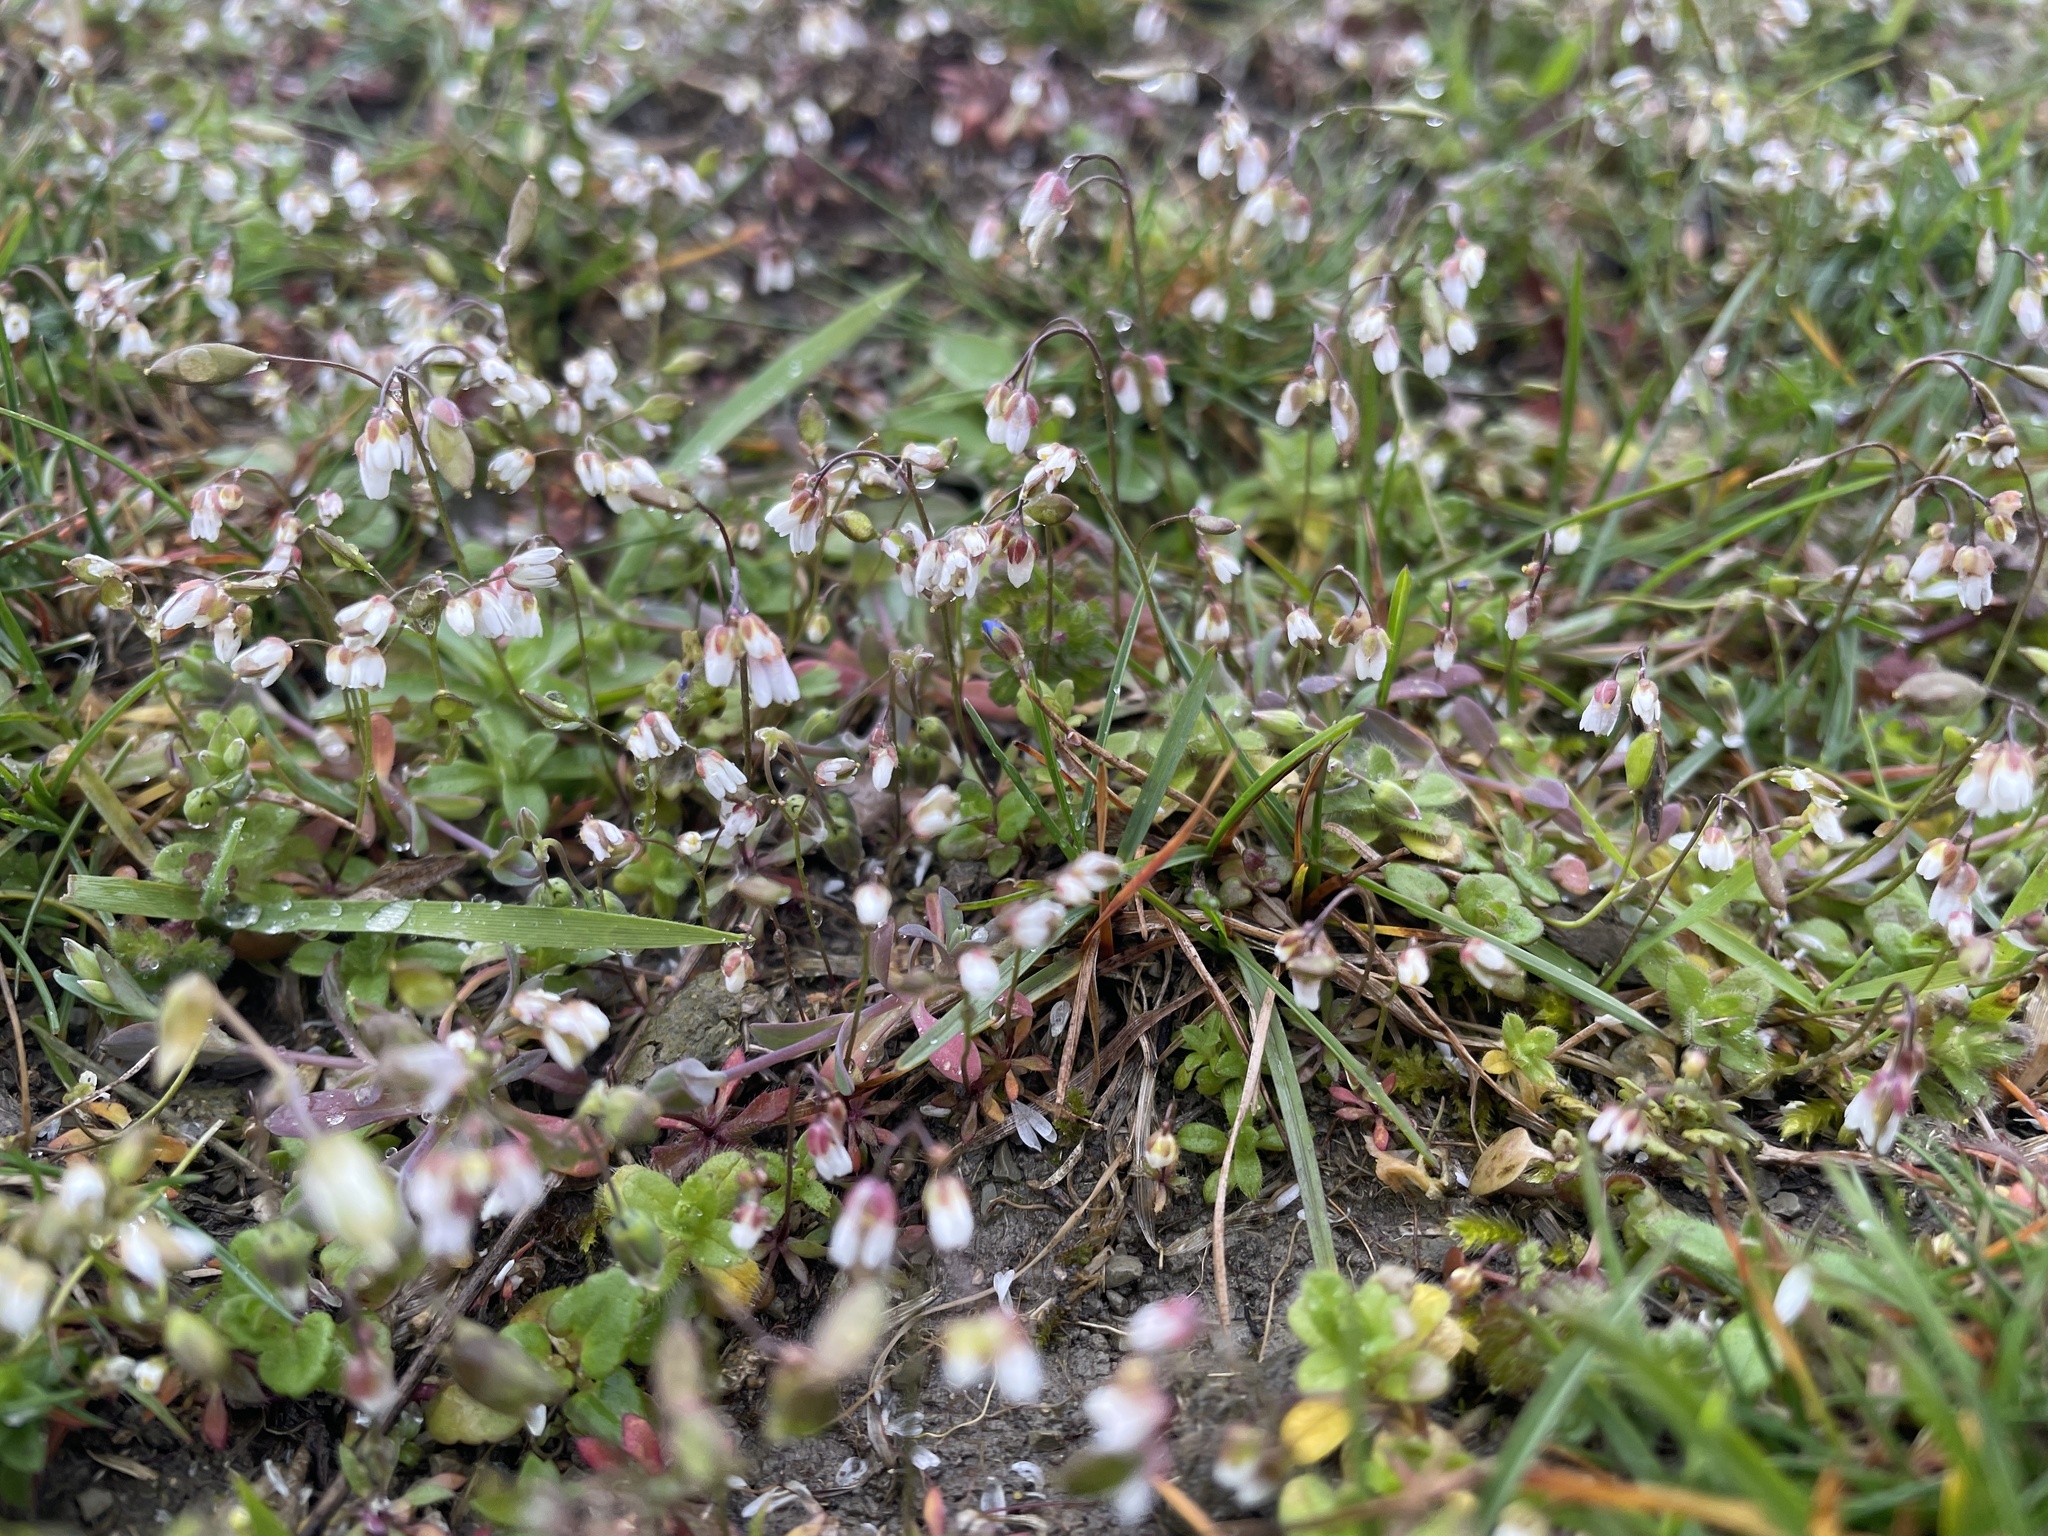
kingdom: Plantae
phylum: Tracheophyta
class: Magnoliopsida
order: Brassicales
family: Brassicaceae
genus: Draba
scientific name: Draba verna
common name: Spring draba
